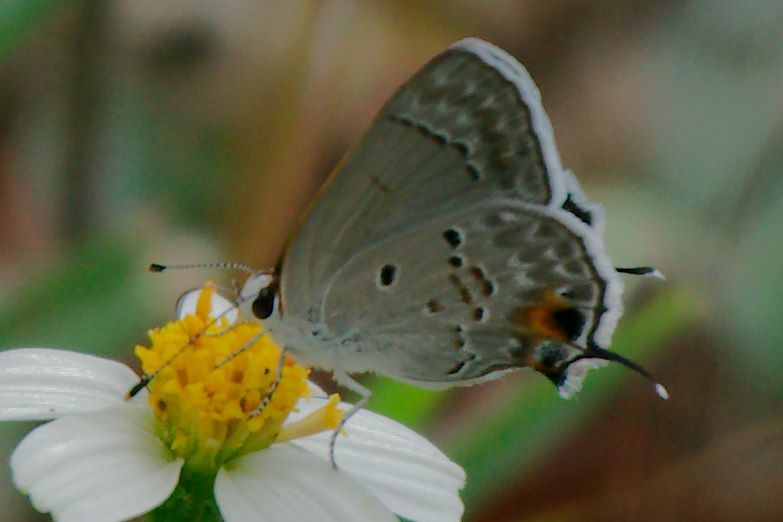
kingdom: Animalia
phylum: Arthropoda
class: Insecta
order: Lepidoptera
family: Lycaenidae
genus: Callicista
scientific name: Callicista columella
